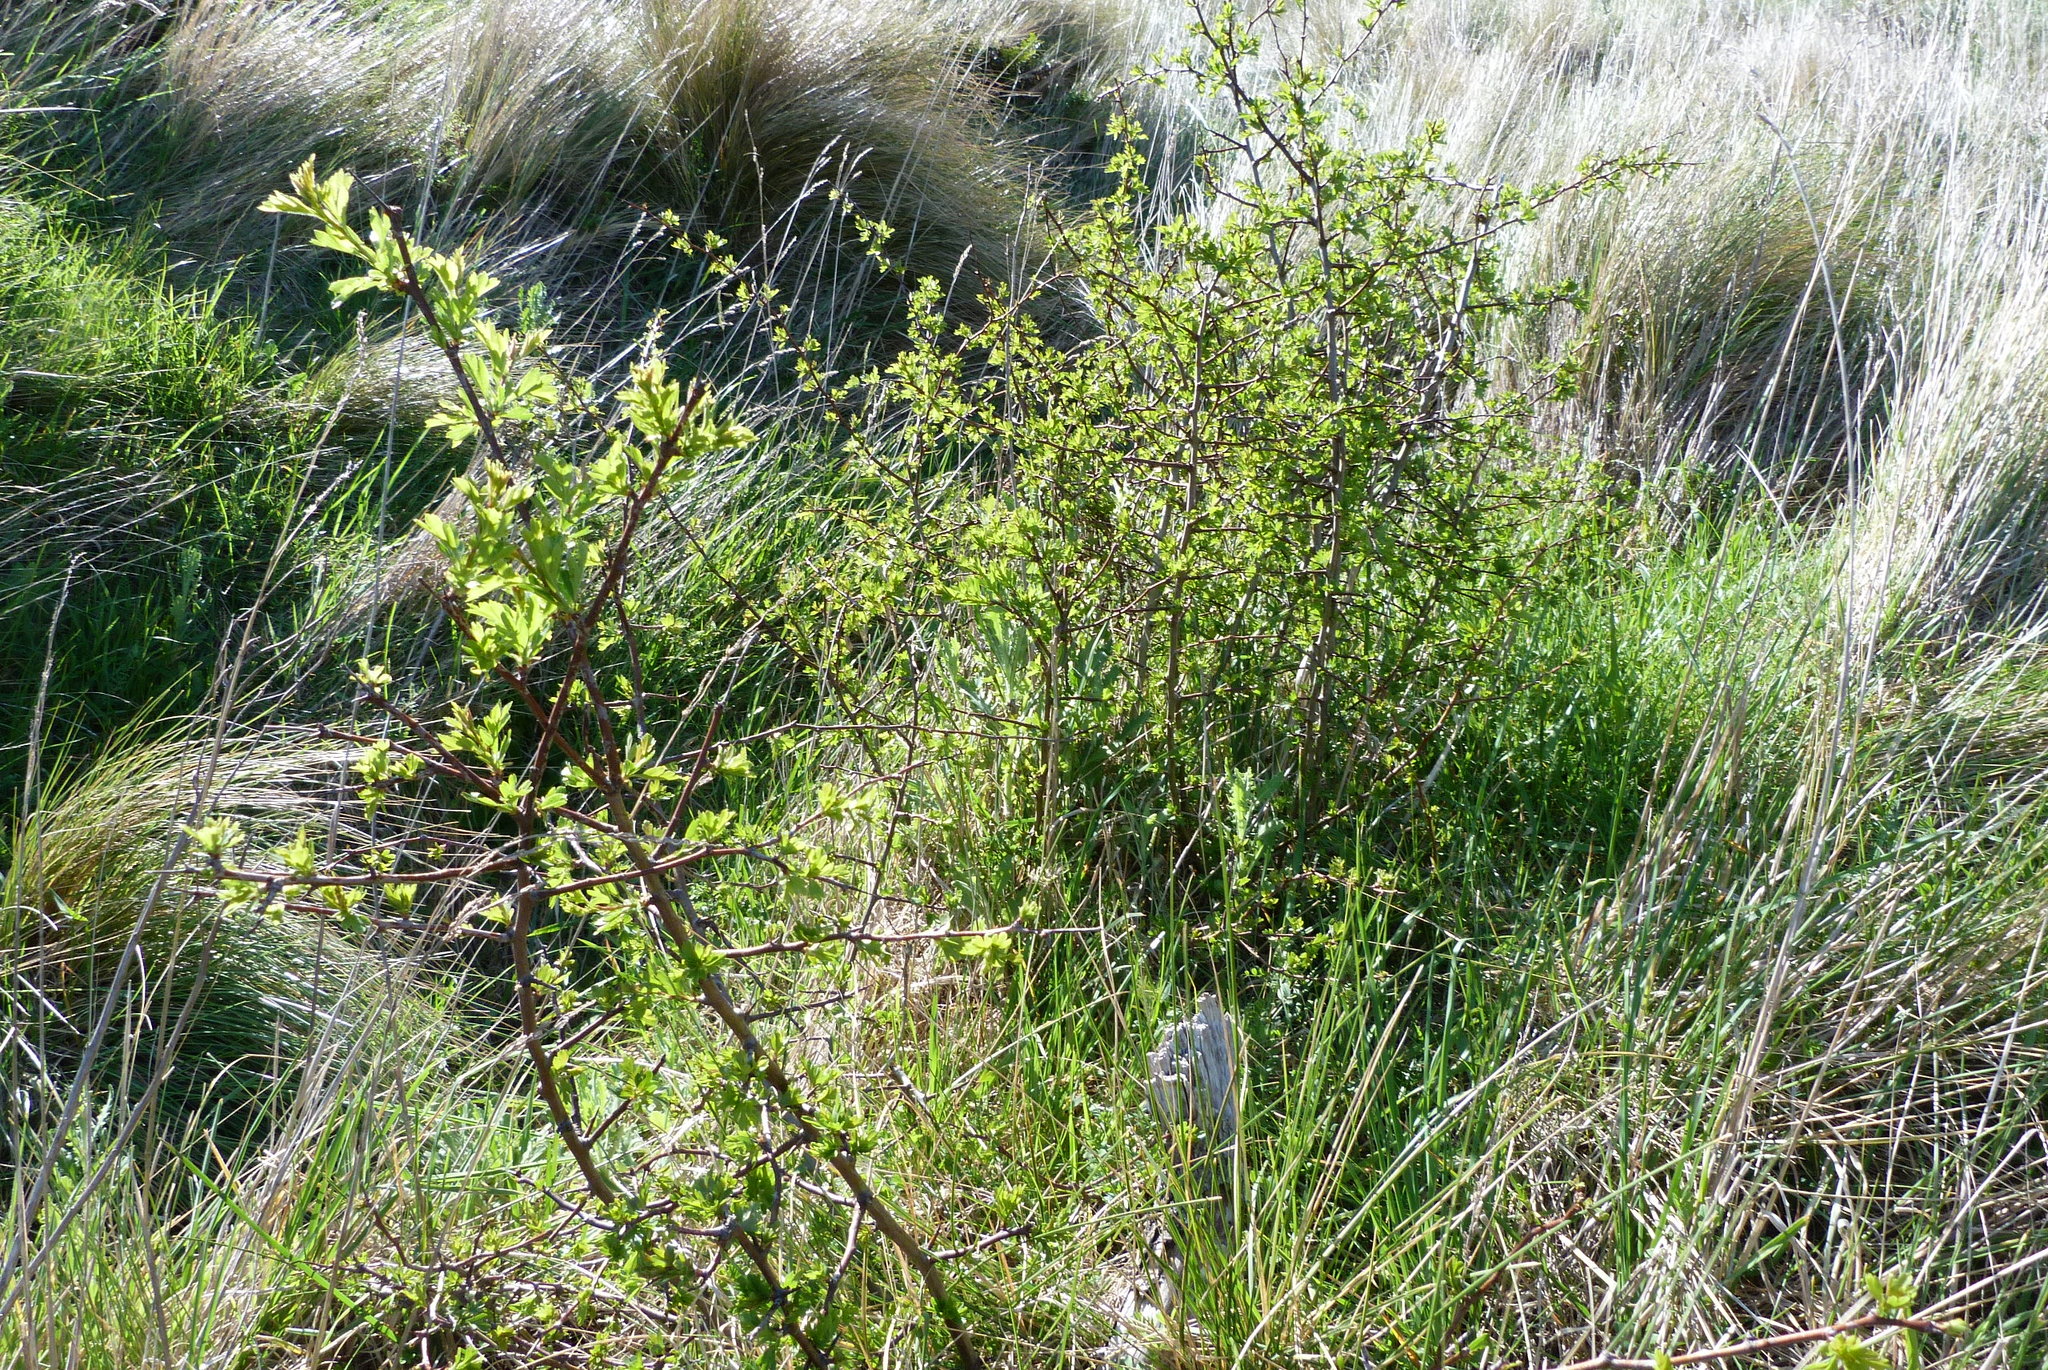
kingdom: Plantae
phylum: Tracheophyta
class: Magnoliopsida
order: Rosales
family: Rosaceae
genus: Crataegus
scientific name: Crataegus monogyna
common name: Hawthorn
